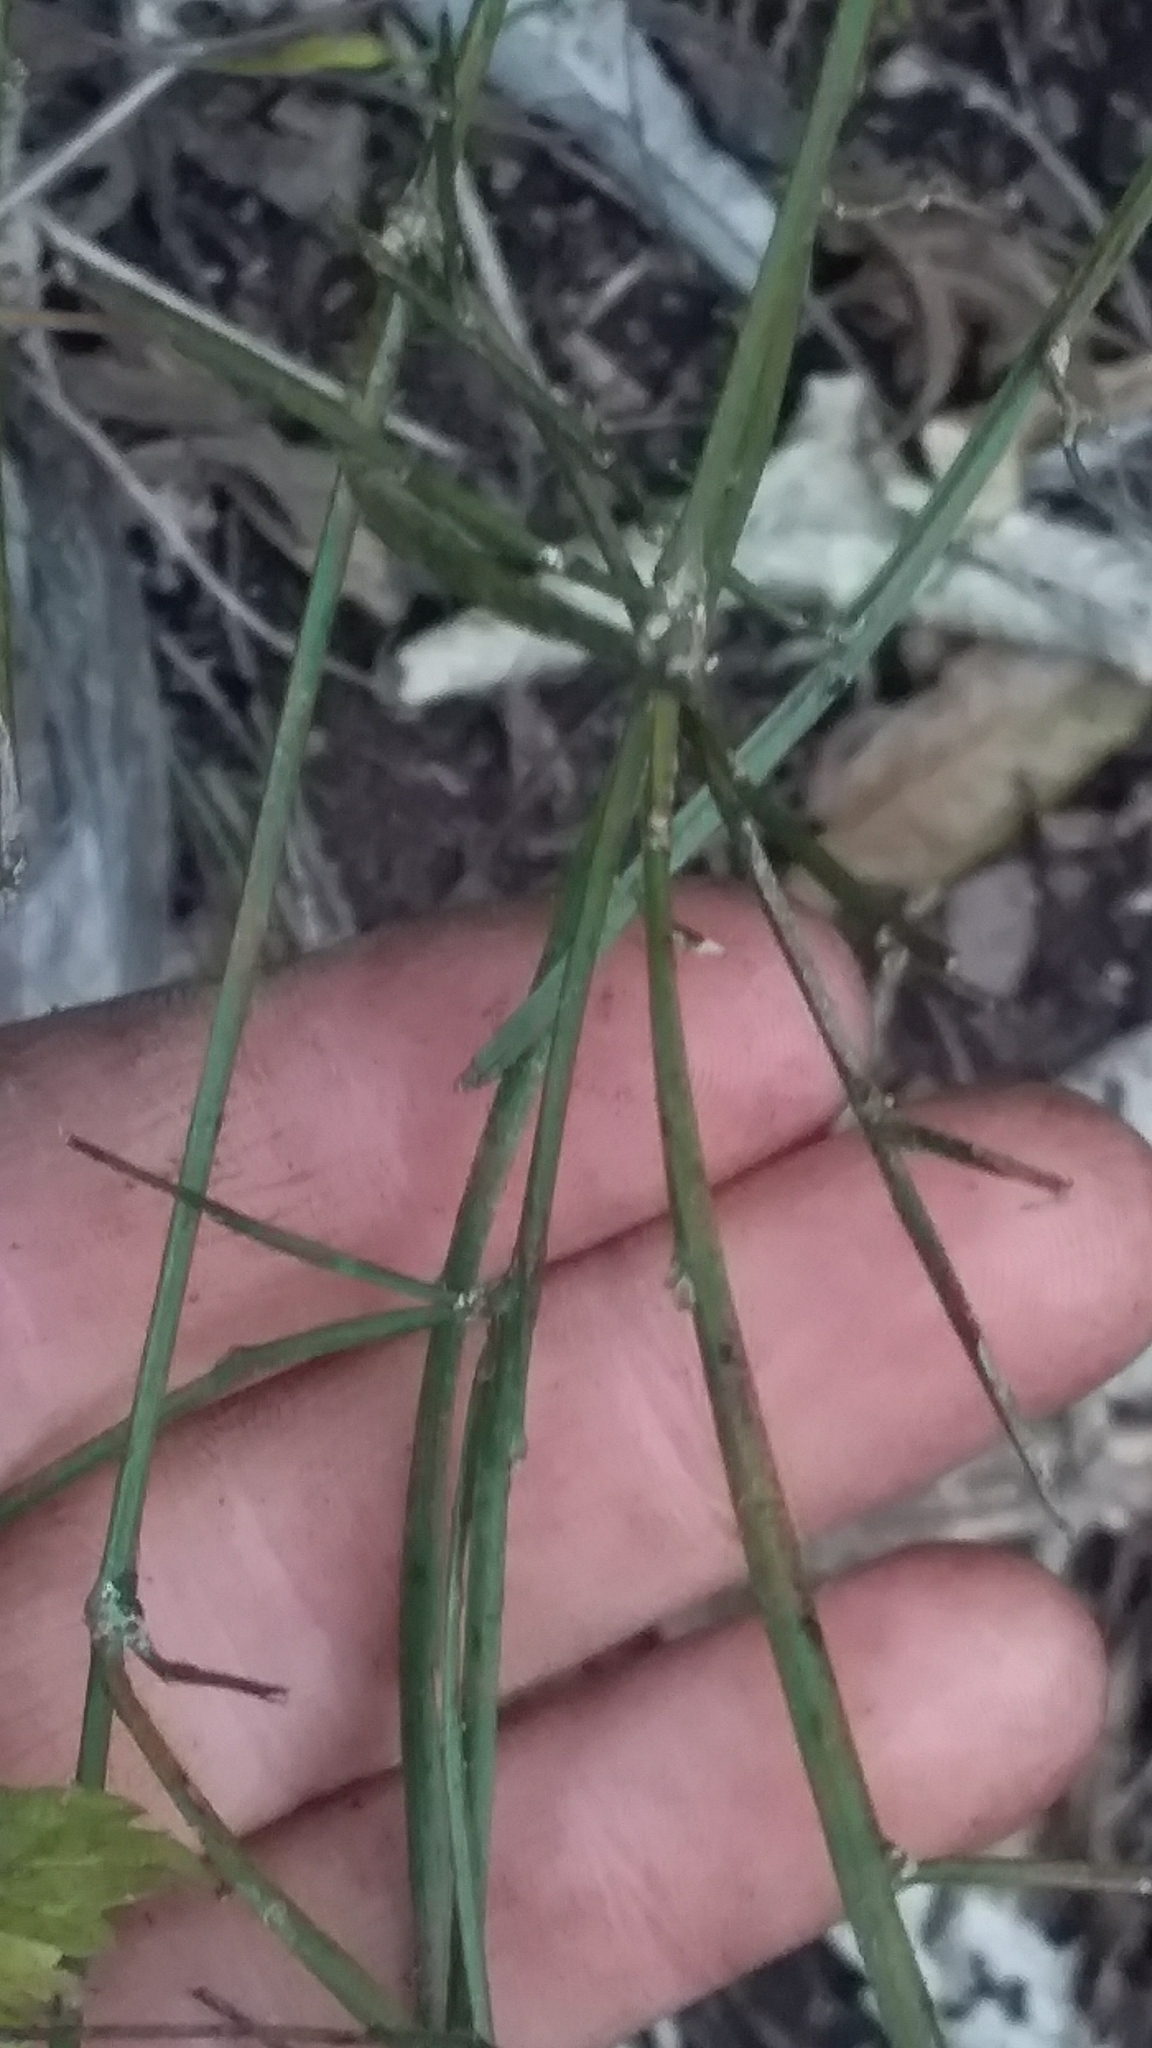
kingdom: Plantae
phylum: Tracheophyta
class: Magnoliopsida
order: Fabales
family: Fabaceae
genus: Carmichaelia
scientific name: Carmichaelia australis
